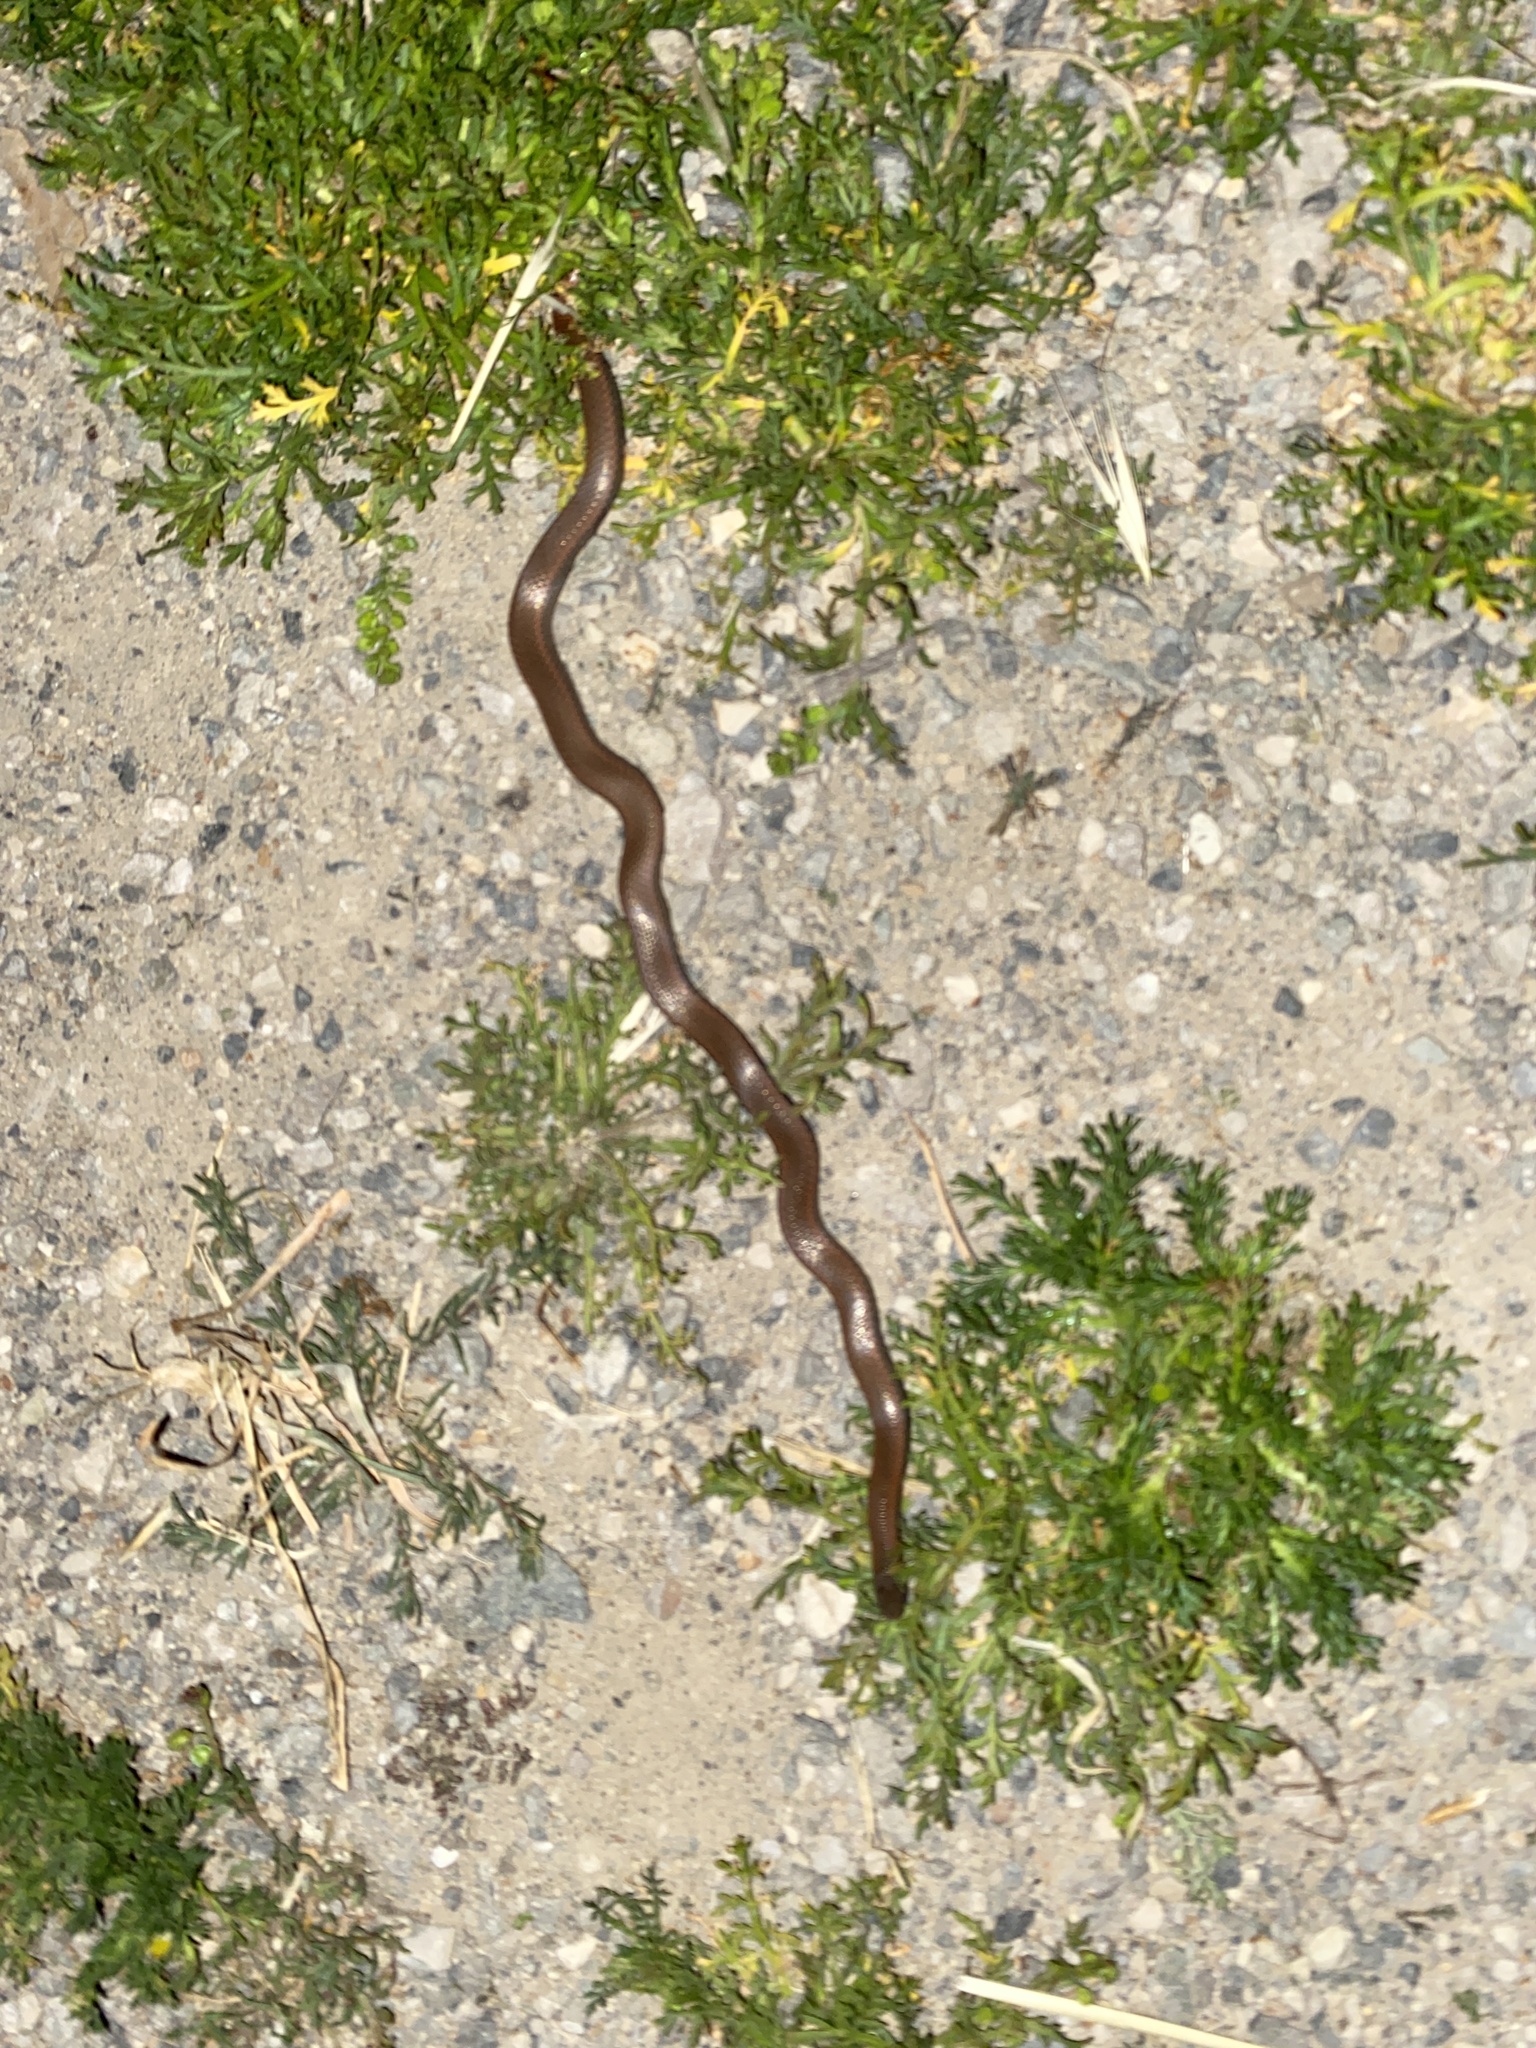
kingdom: Animalia
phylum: Chordata
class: Squamata
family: Colubridae
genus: Contia
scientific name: Contia tenuis
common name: Sharptail snake
